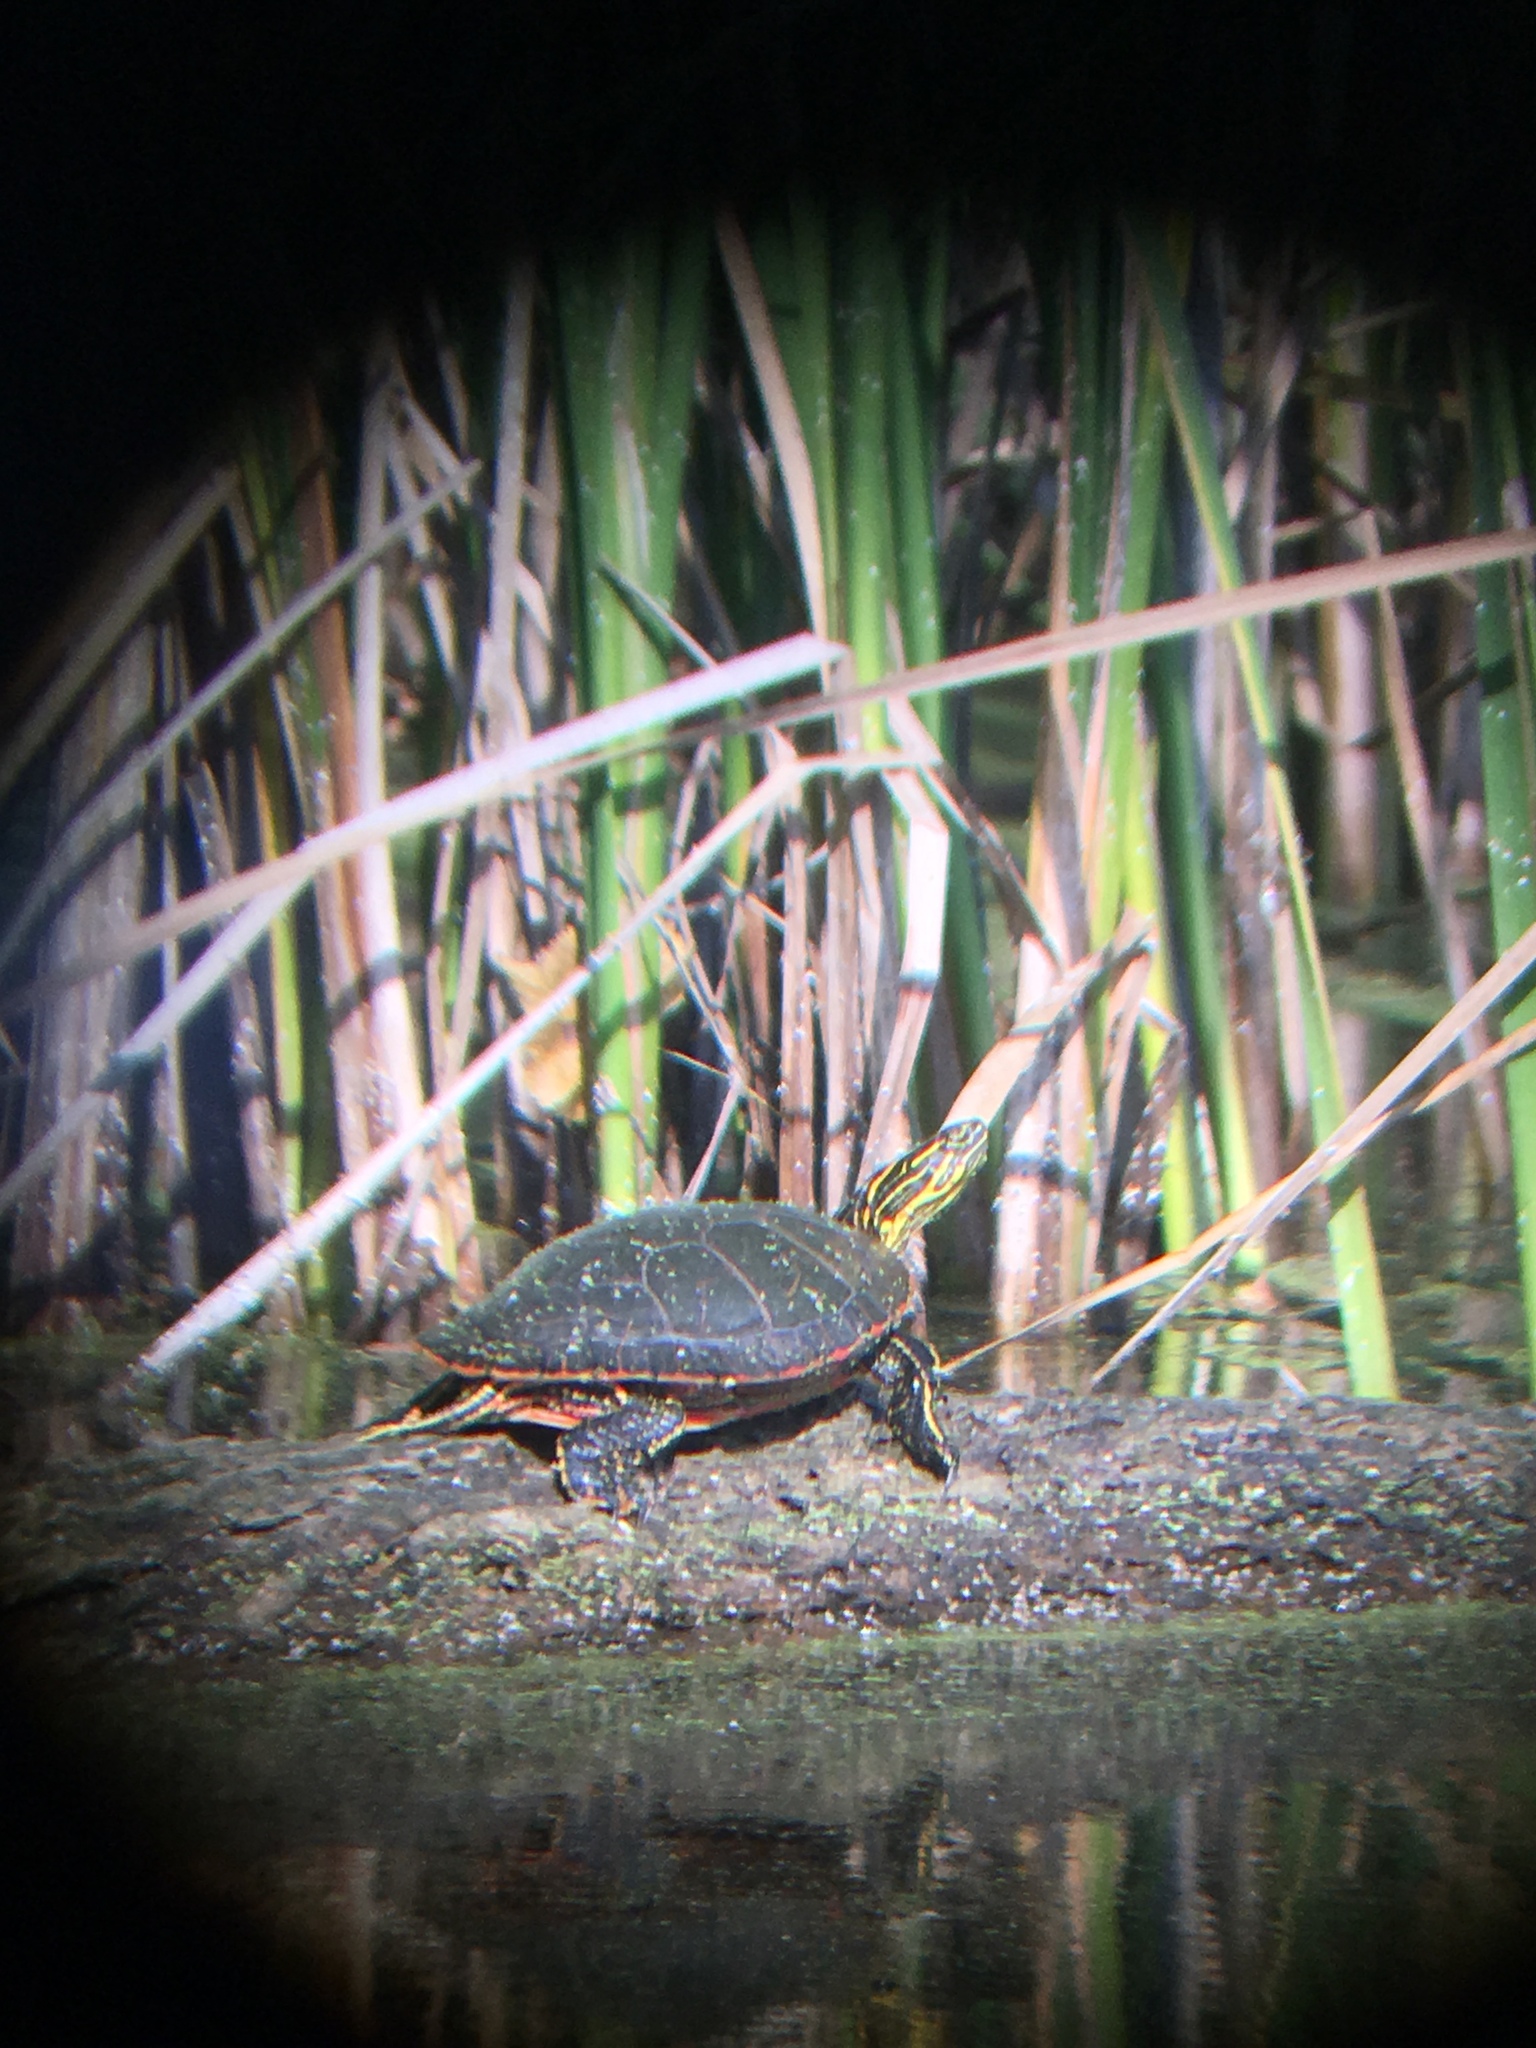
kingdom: Animalia
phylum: Chordata
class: Testudines
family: Emydidae
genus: Chrysemys
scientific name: Chrysemys picta
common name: Painted turtle
